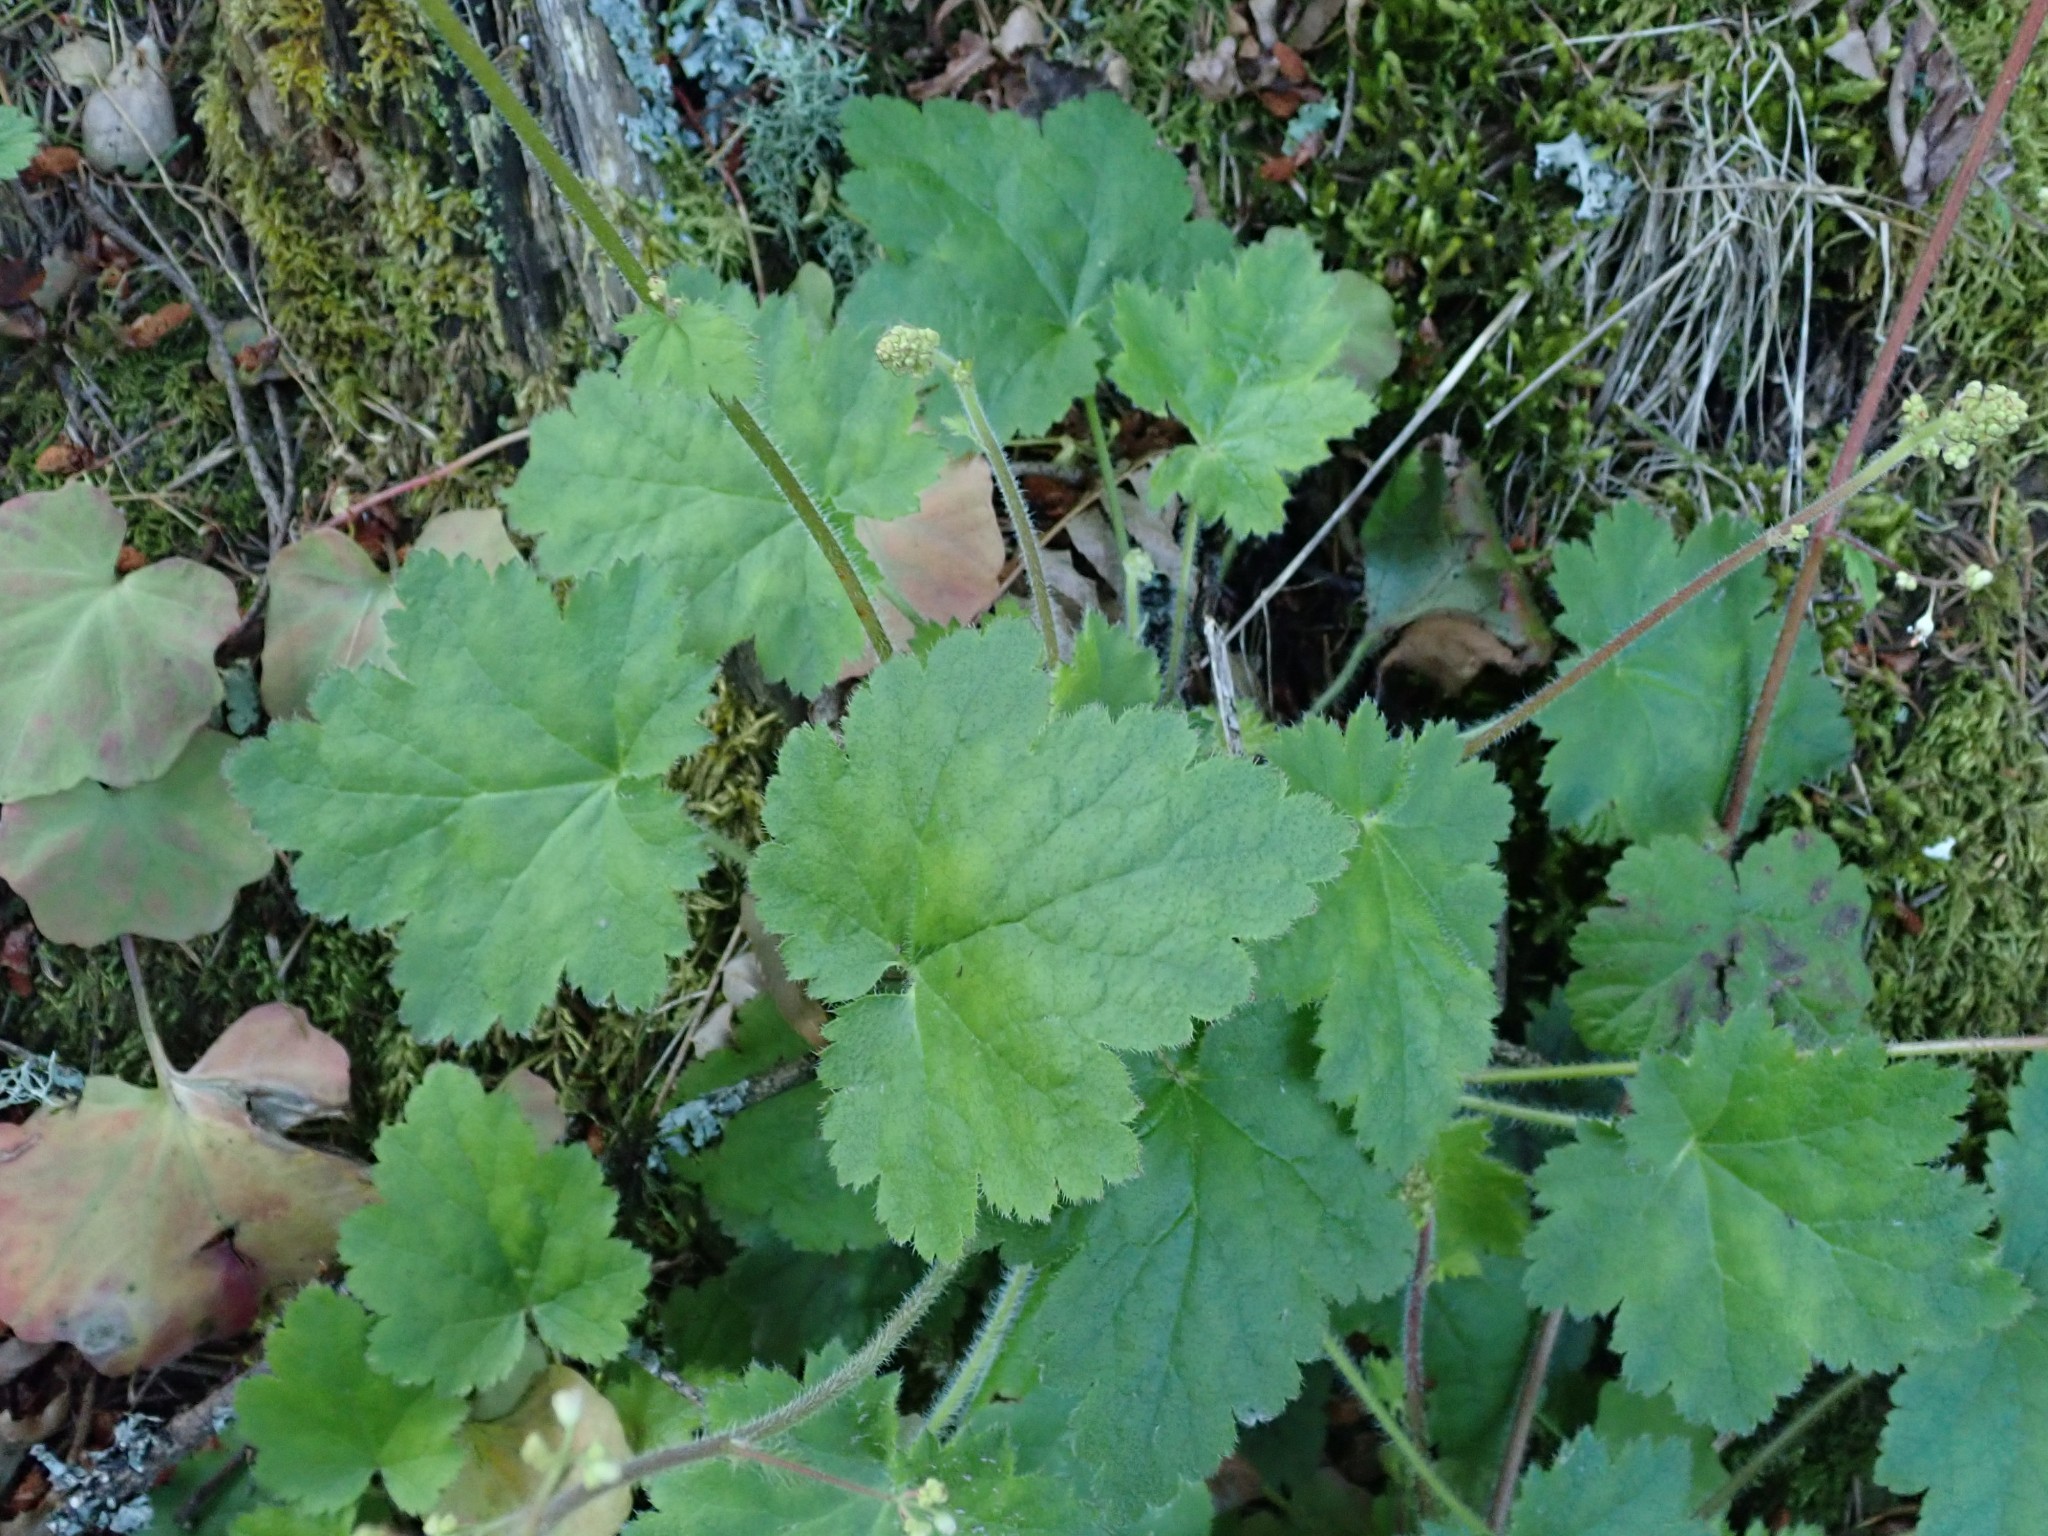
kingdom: Plantae
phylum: Tracheophyta
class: Magnoliopsida
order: Saxifragales
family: Saxifragaceae
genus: Heuchera
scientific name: Heuchera micrantha
